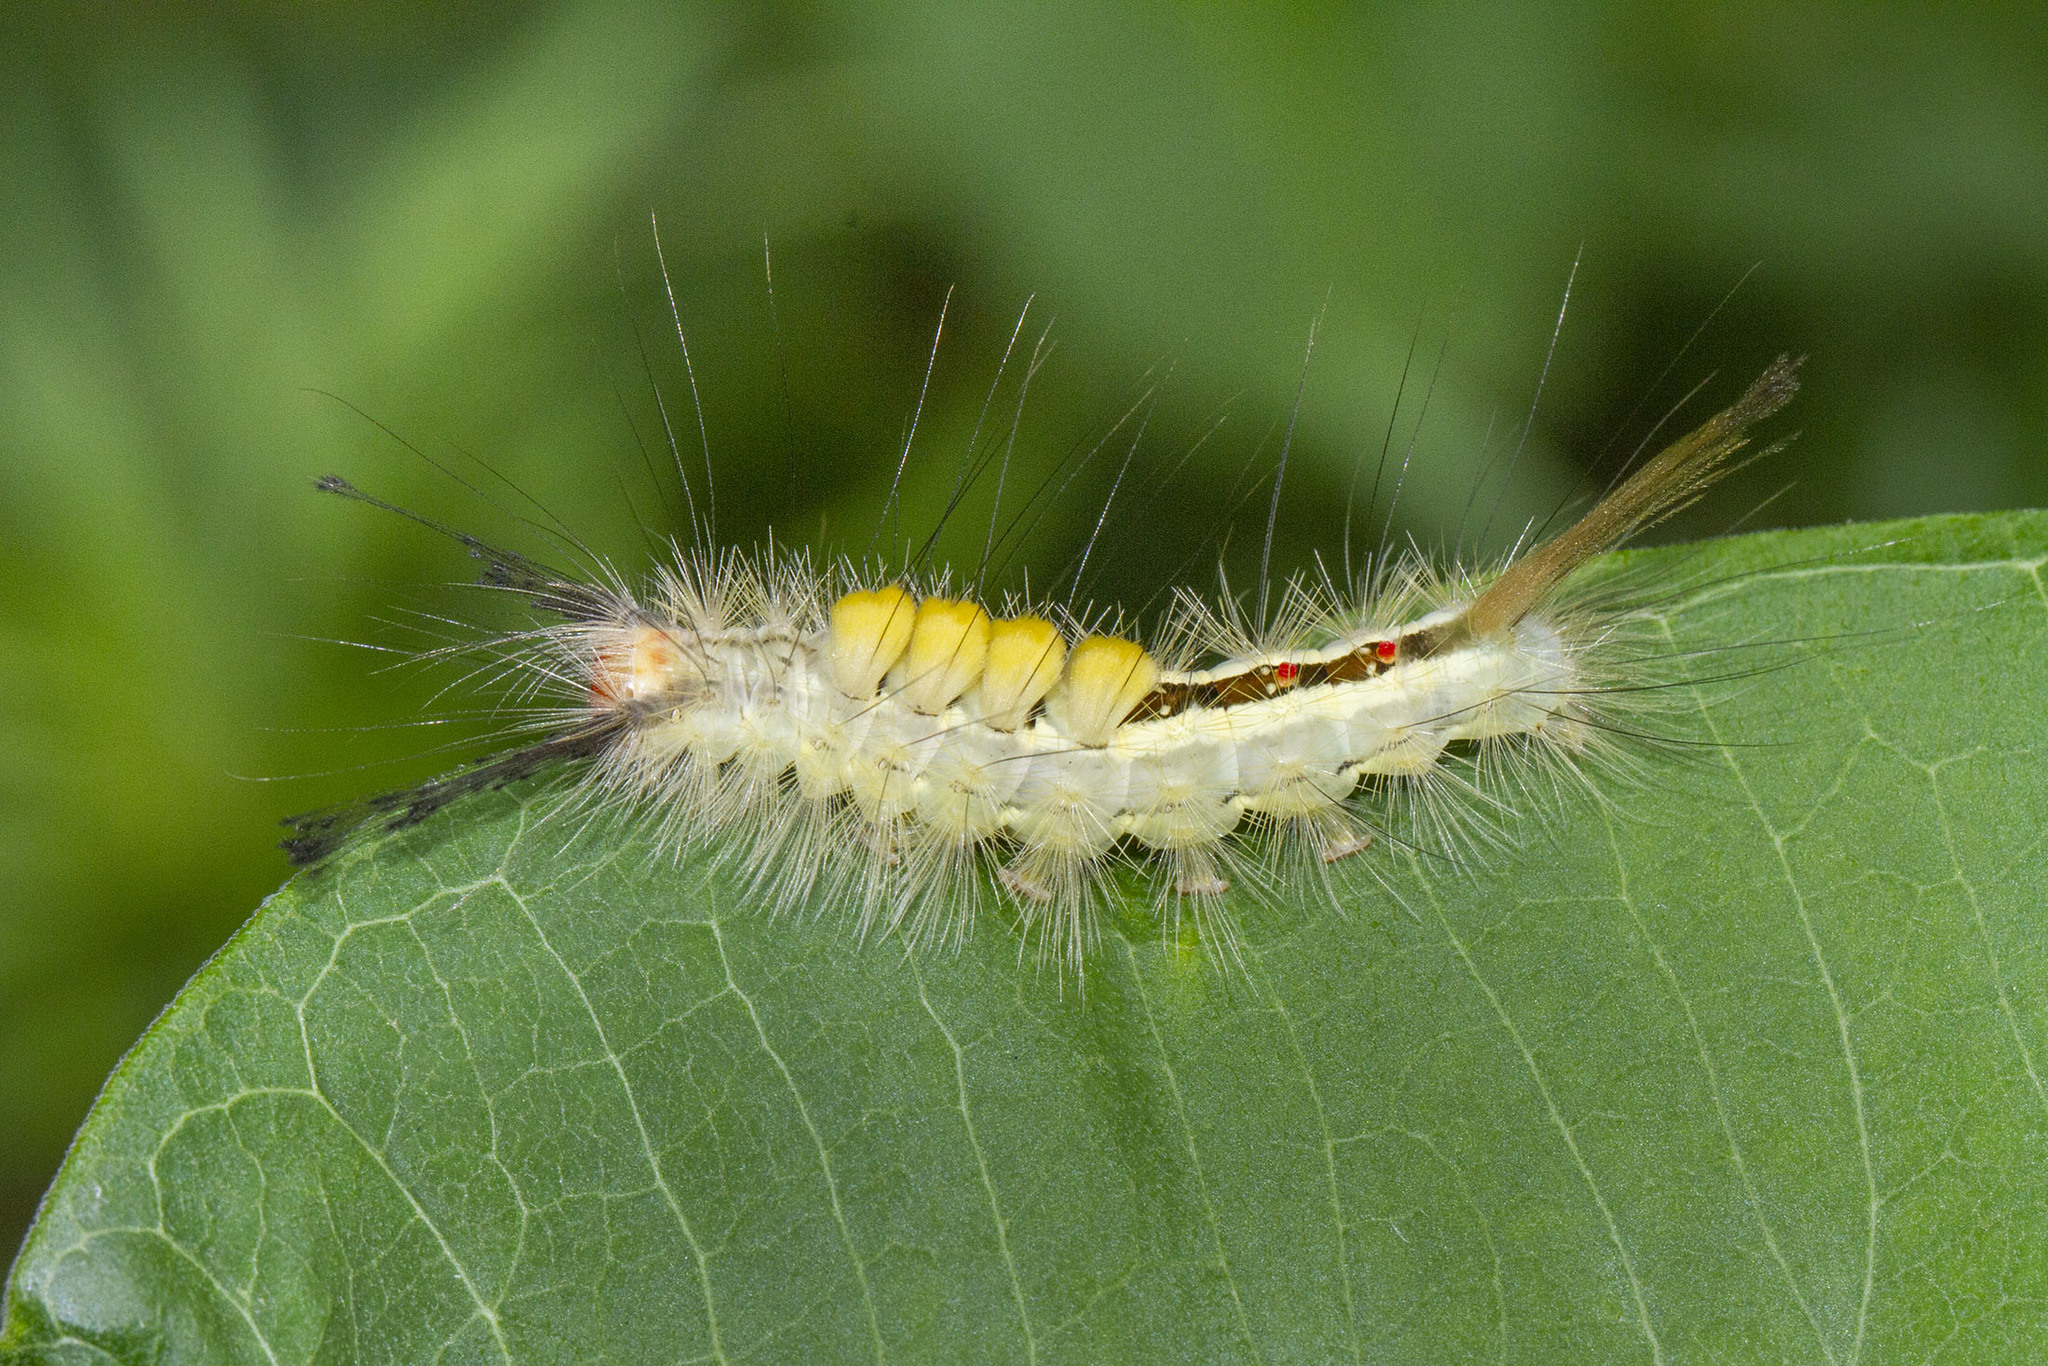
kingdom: Animalia
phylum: Arthropoda
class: Insecta
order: Lepidoptera
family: Erebidae
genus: Orgyia
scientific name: Orgyia leucostigma
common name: White-marked tussock moth
